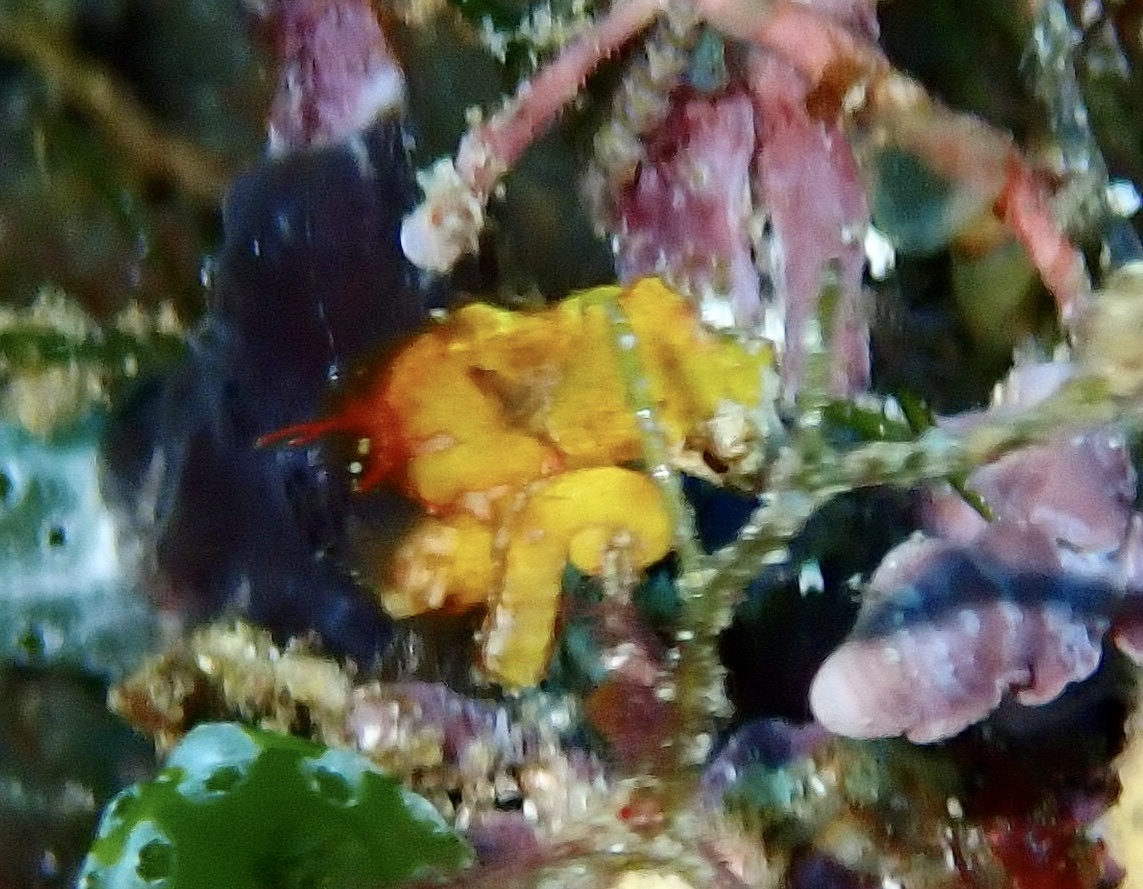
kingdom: Animalia
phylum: Chordata
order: Syngnathiformes
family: Syngnathidae
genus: Hippocampus
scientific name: Hippocampus pontohi
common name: Pontoh`s pygmy seahorse
